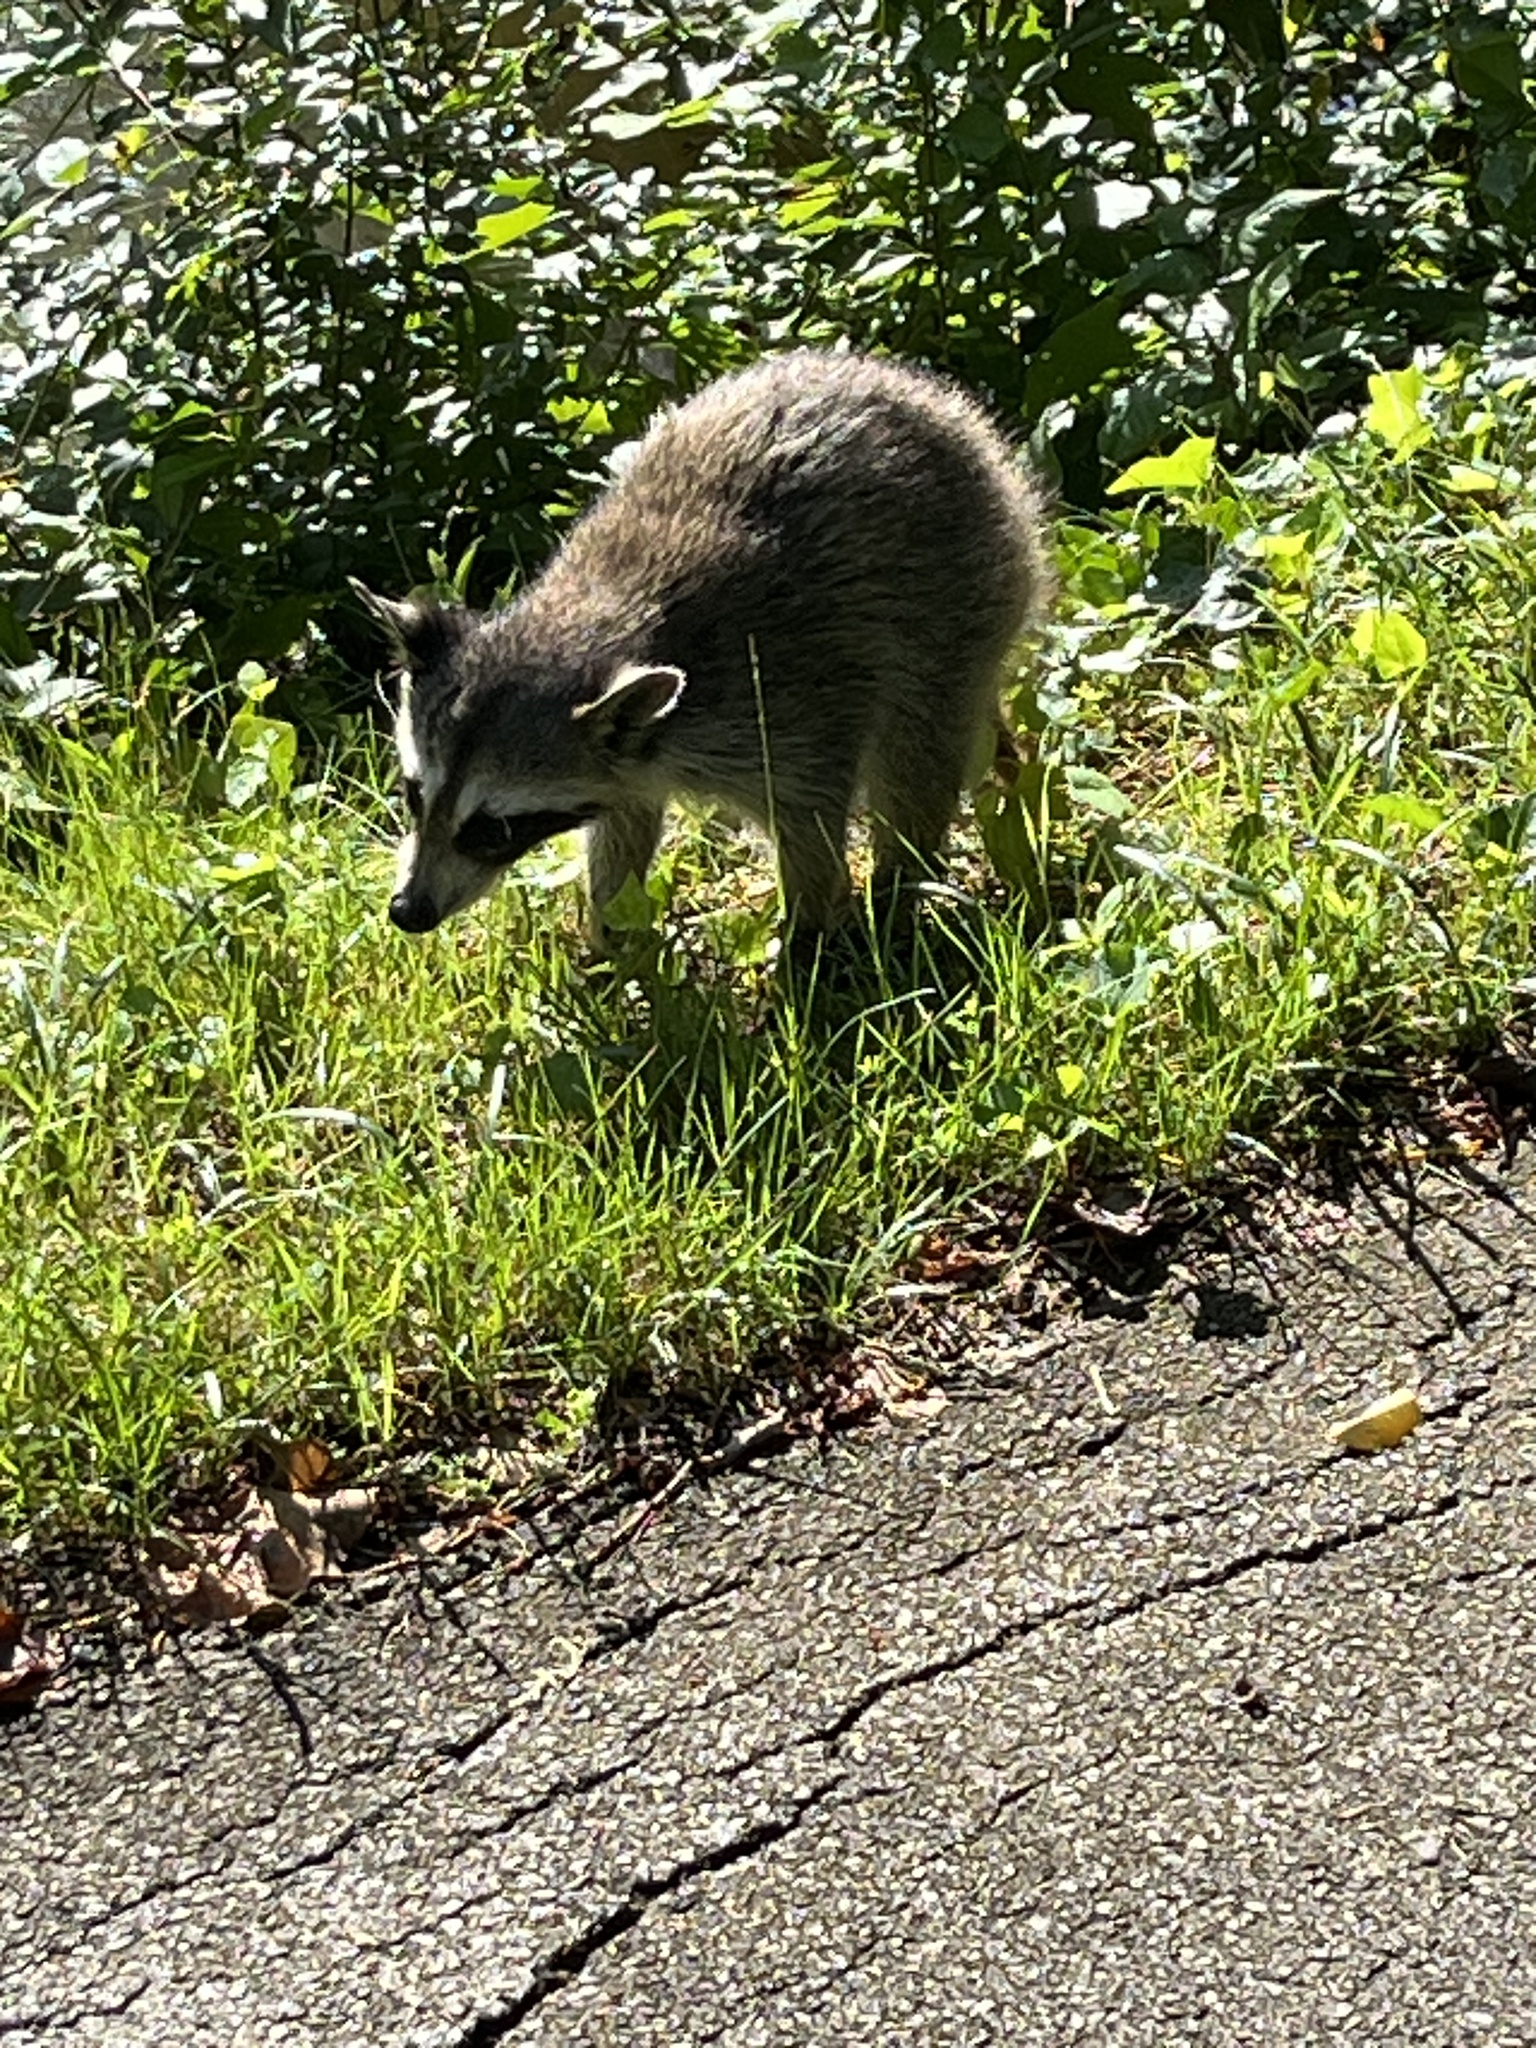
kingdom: Animalia
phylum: Chordata
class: Mammalia
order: Carnivora
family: Procyonidae
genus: Procyon
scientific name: Procyon lotor
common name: Raccoon
